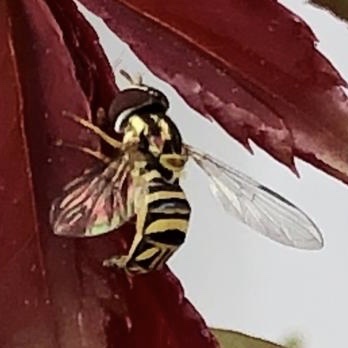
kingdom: Animalia
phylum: Arthropoda
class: Insecta
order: Diptera
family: Syrphidae
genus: Allograpta
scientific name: Allograpta obliqua
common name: Common oblique syrphid
